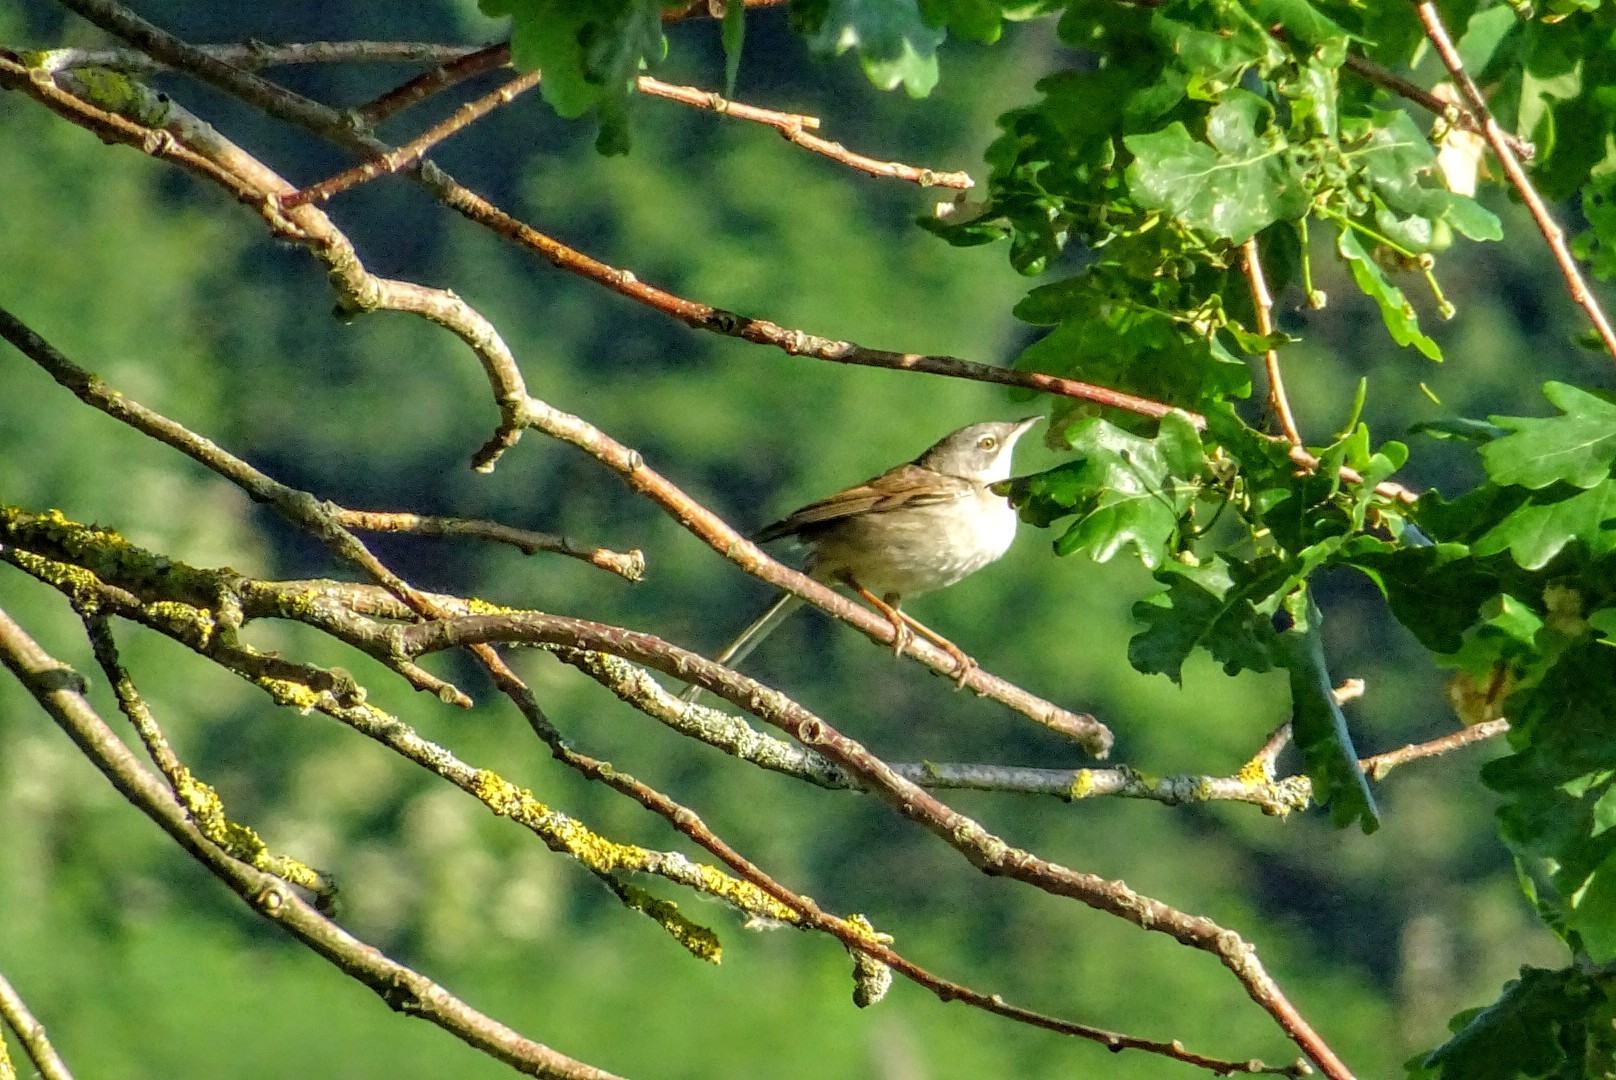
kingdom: Animalia
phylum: Chordata
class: Aves
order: Passeriformes
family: Sylviidae
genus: Sylvia
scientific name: Sylvia communis
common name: Common whitethroat
